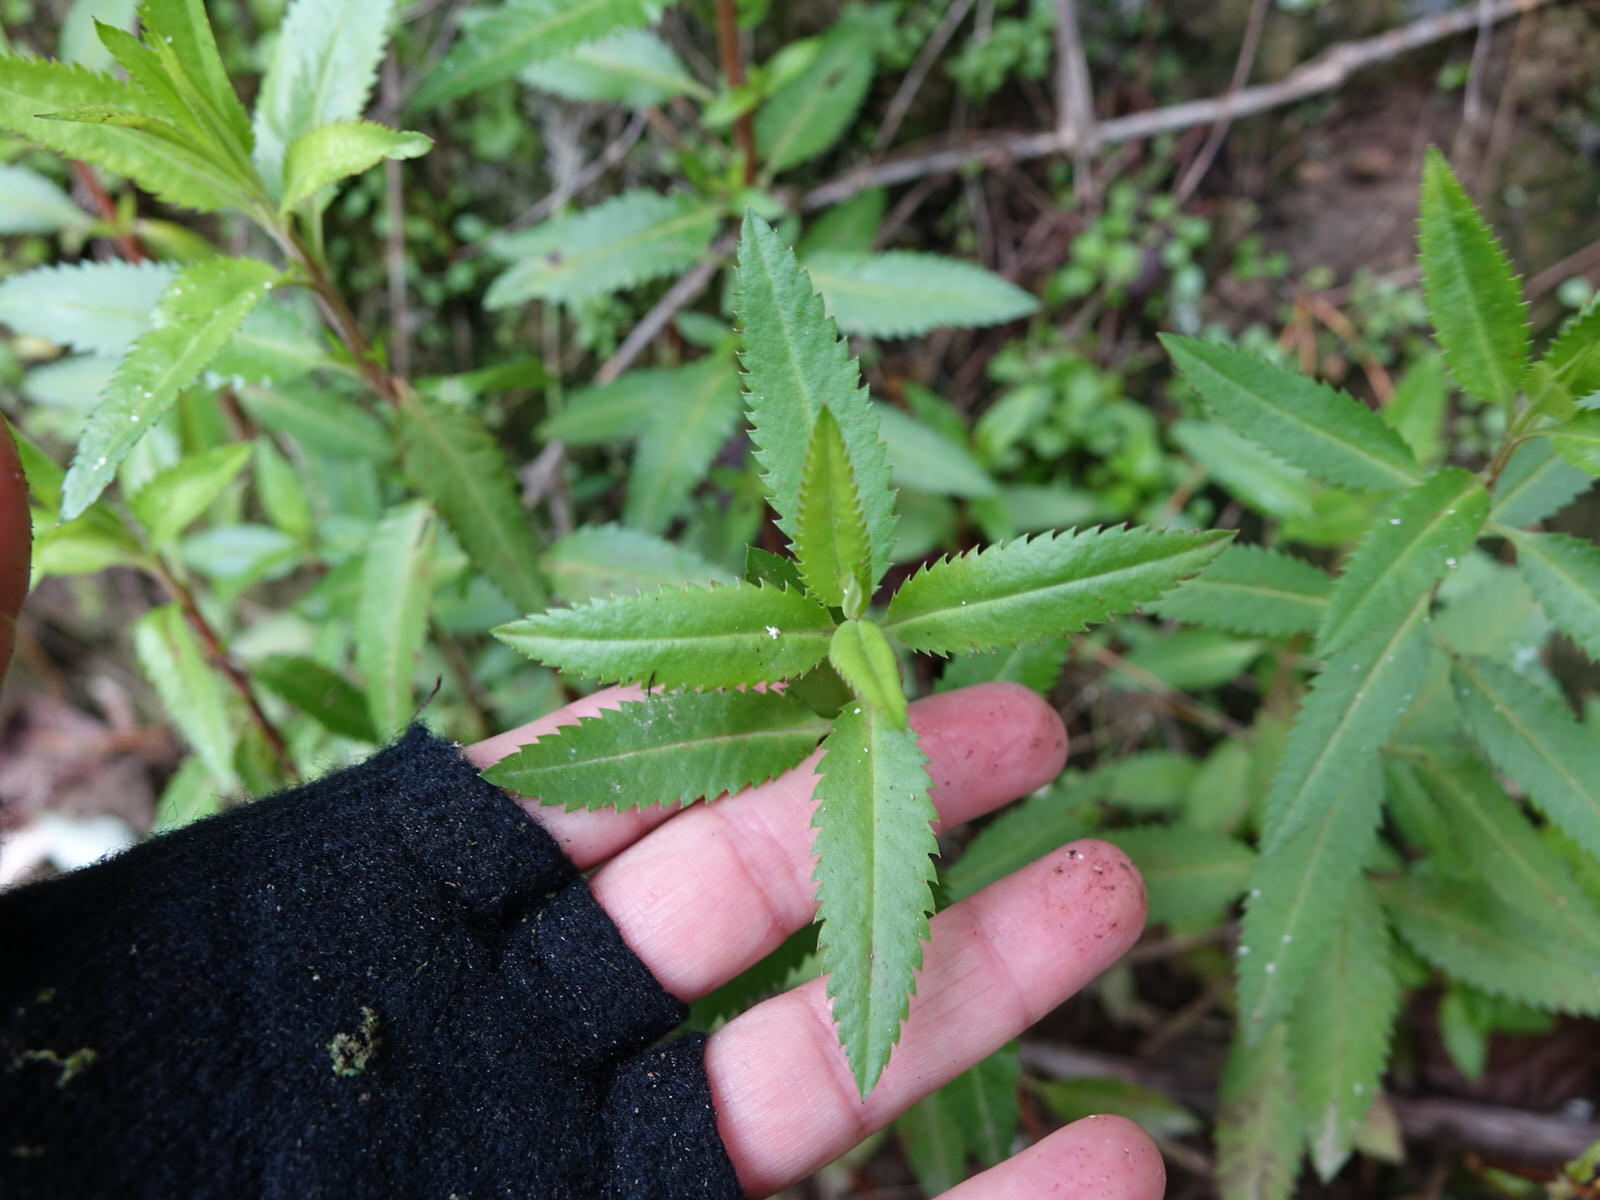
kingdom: Plantae
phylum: Tracheophyta
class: Magnoliopsida
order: Saxifragales
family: Haloragaceae
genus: Haloragis
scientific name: Haloragis erecta
